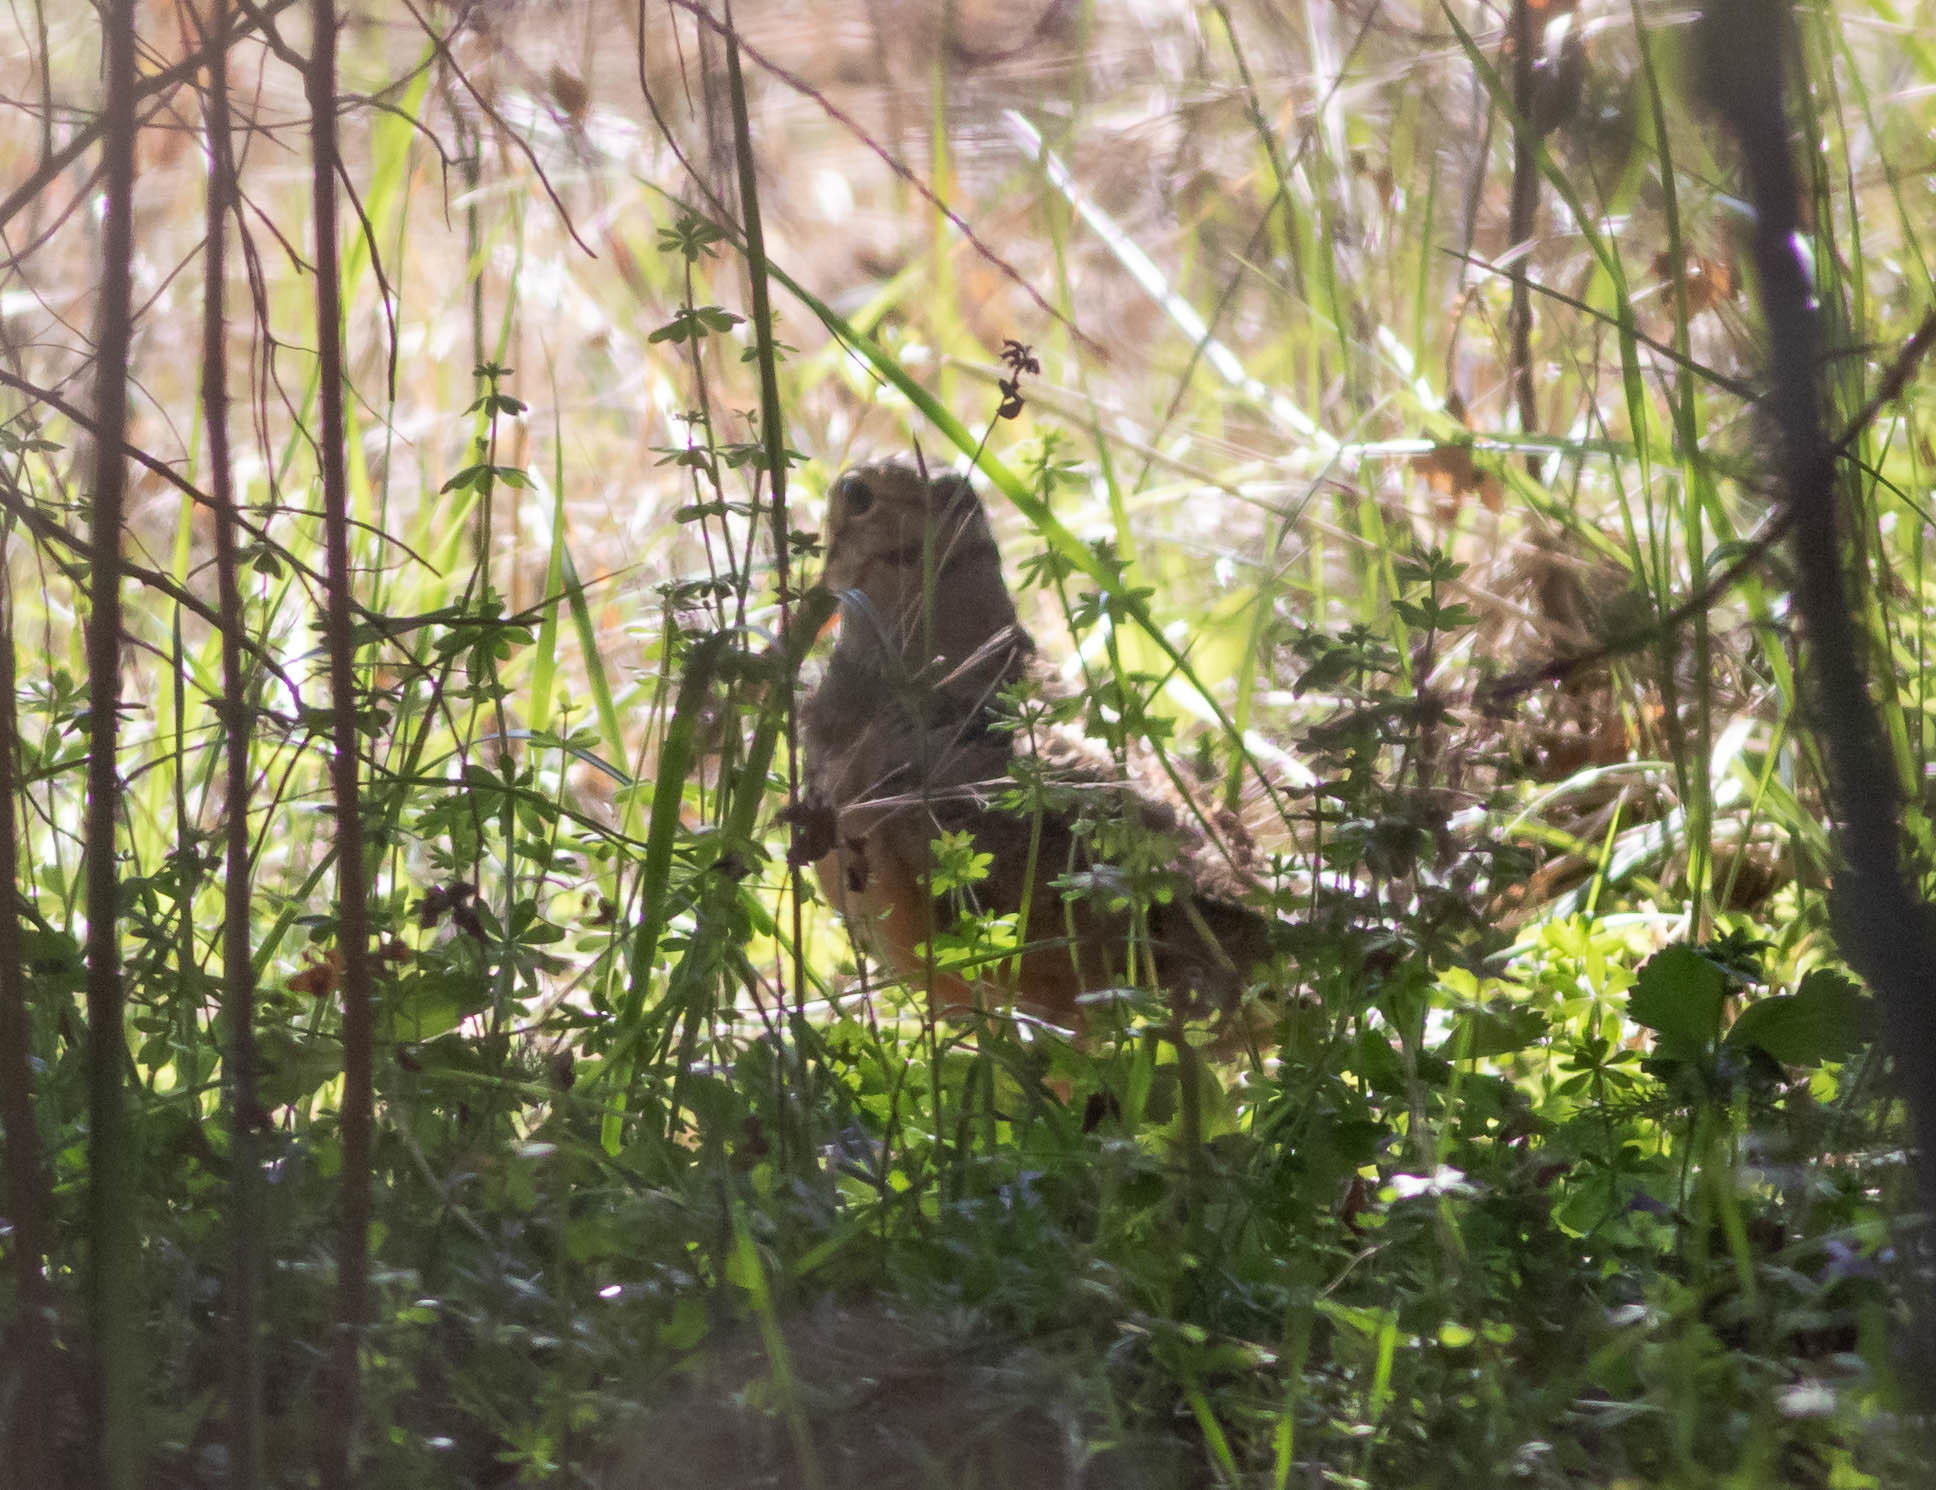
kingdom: Animalia
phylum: Chordata
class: Aves
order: Charadriiformes
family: Scolopacidae
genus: Scolopax
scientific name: Scolopax minor
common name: American woodcock
